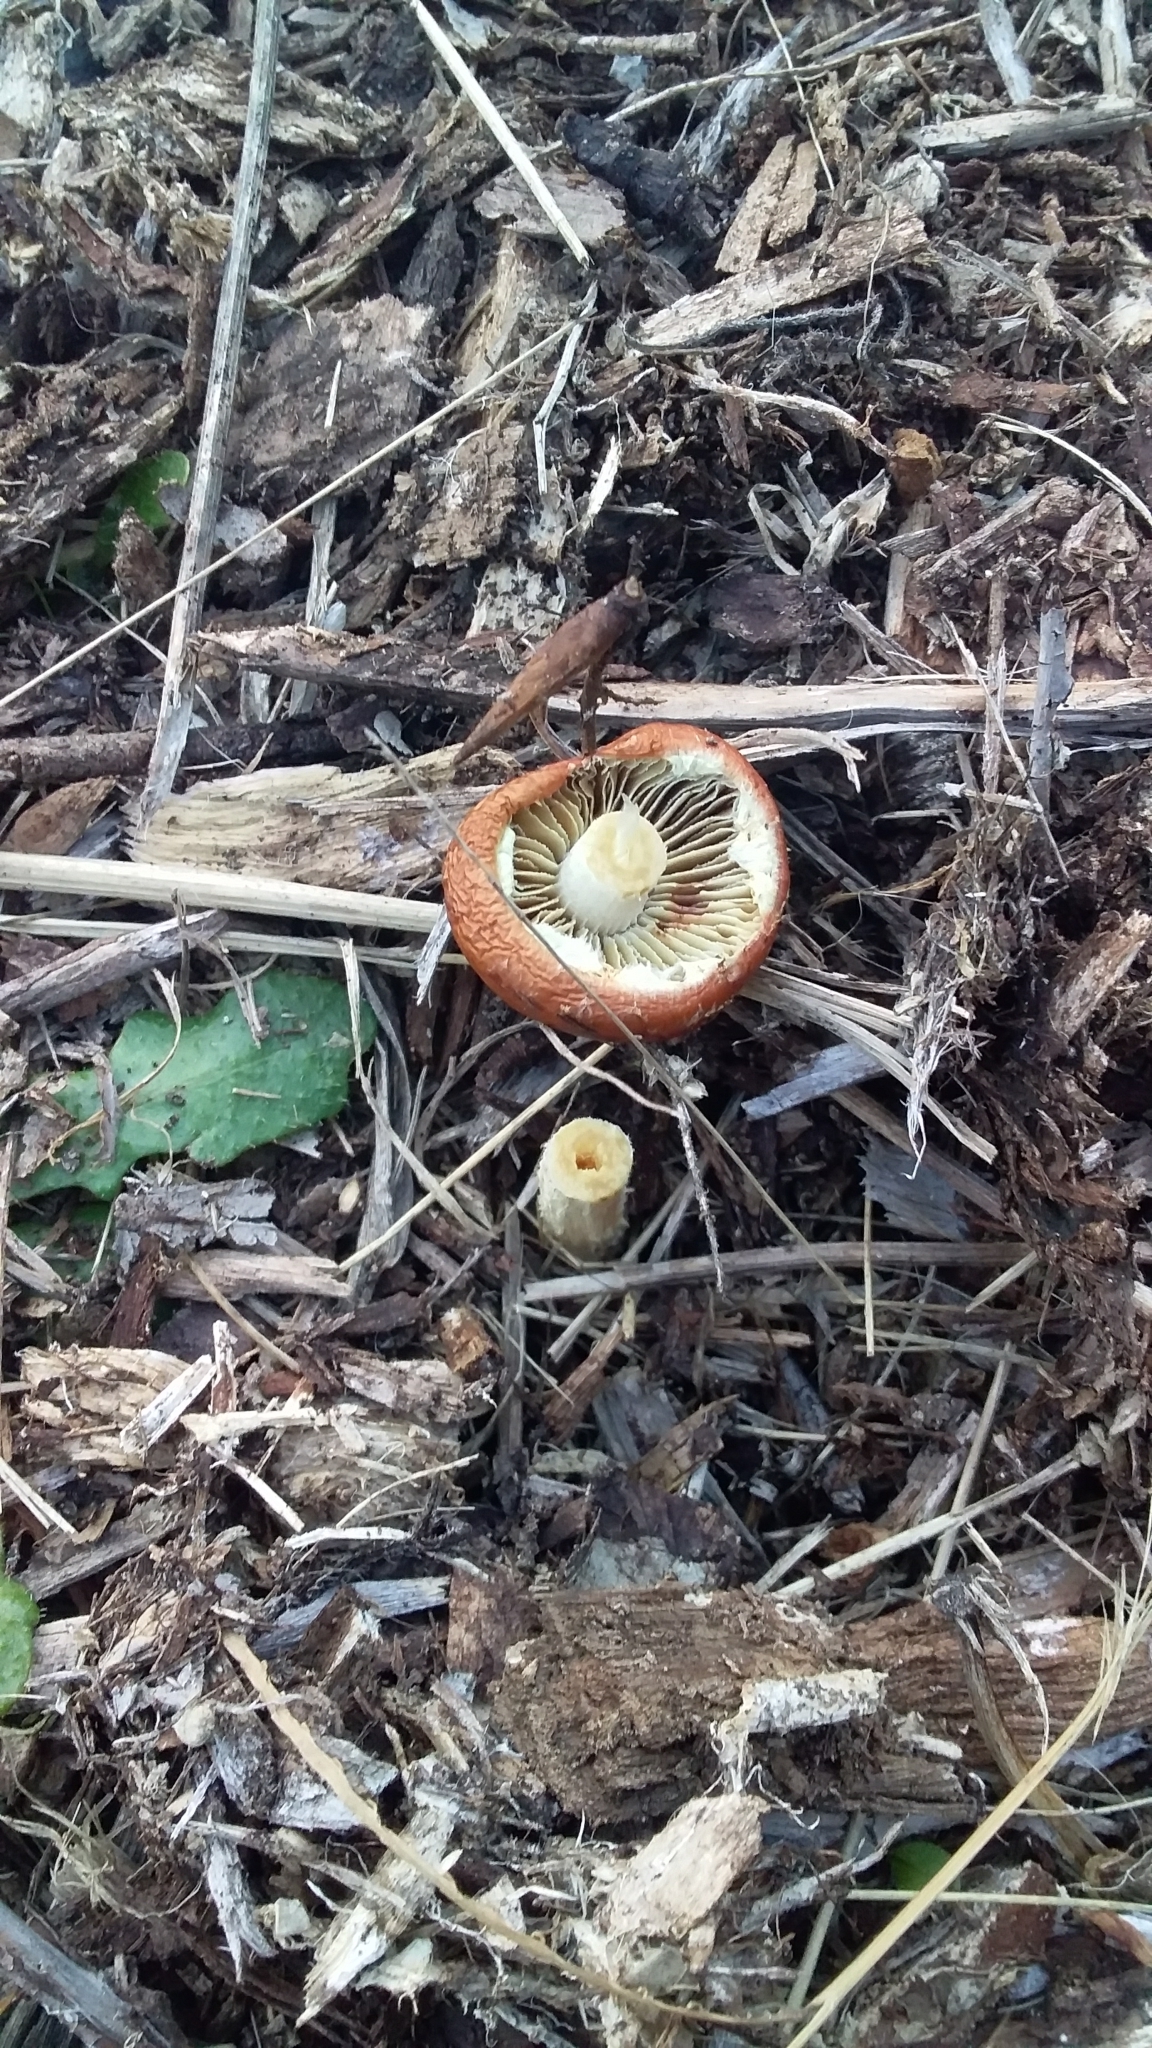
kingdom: Fungi
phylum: Basidiomycota
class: Agaricomycetes
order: Agaricales
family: Strophariaceae
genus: Leratiomyces
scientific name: Leratiomyces ceres
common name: Redlead roundhead
